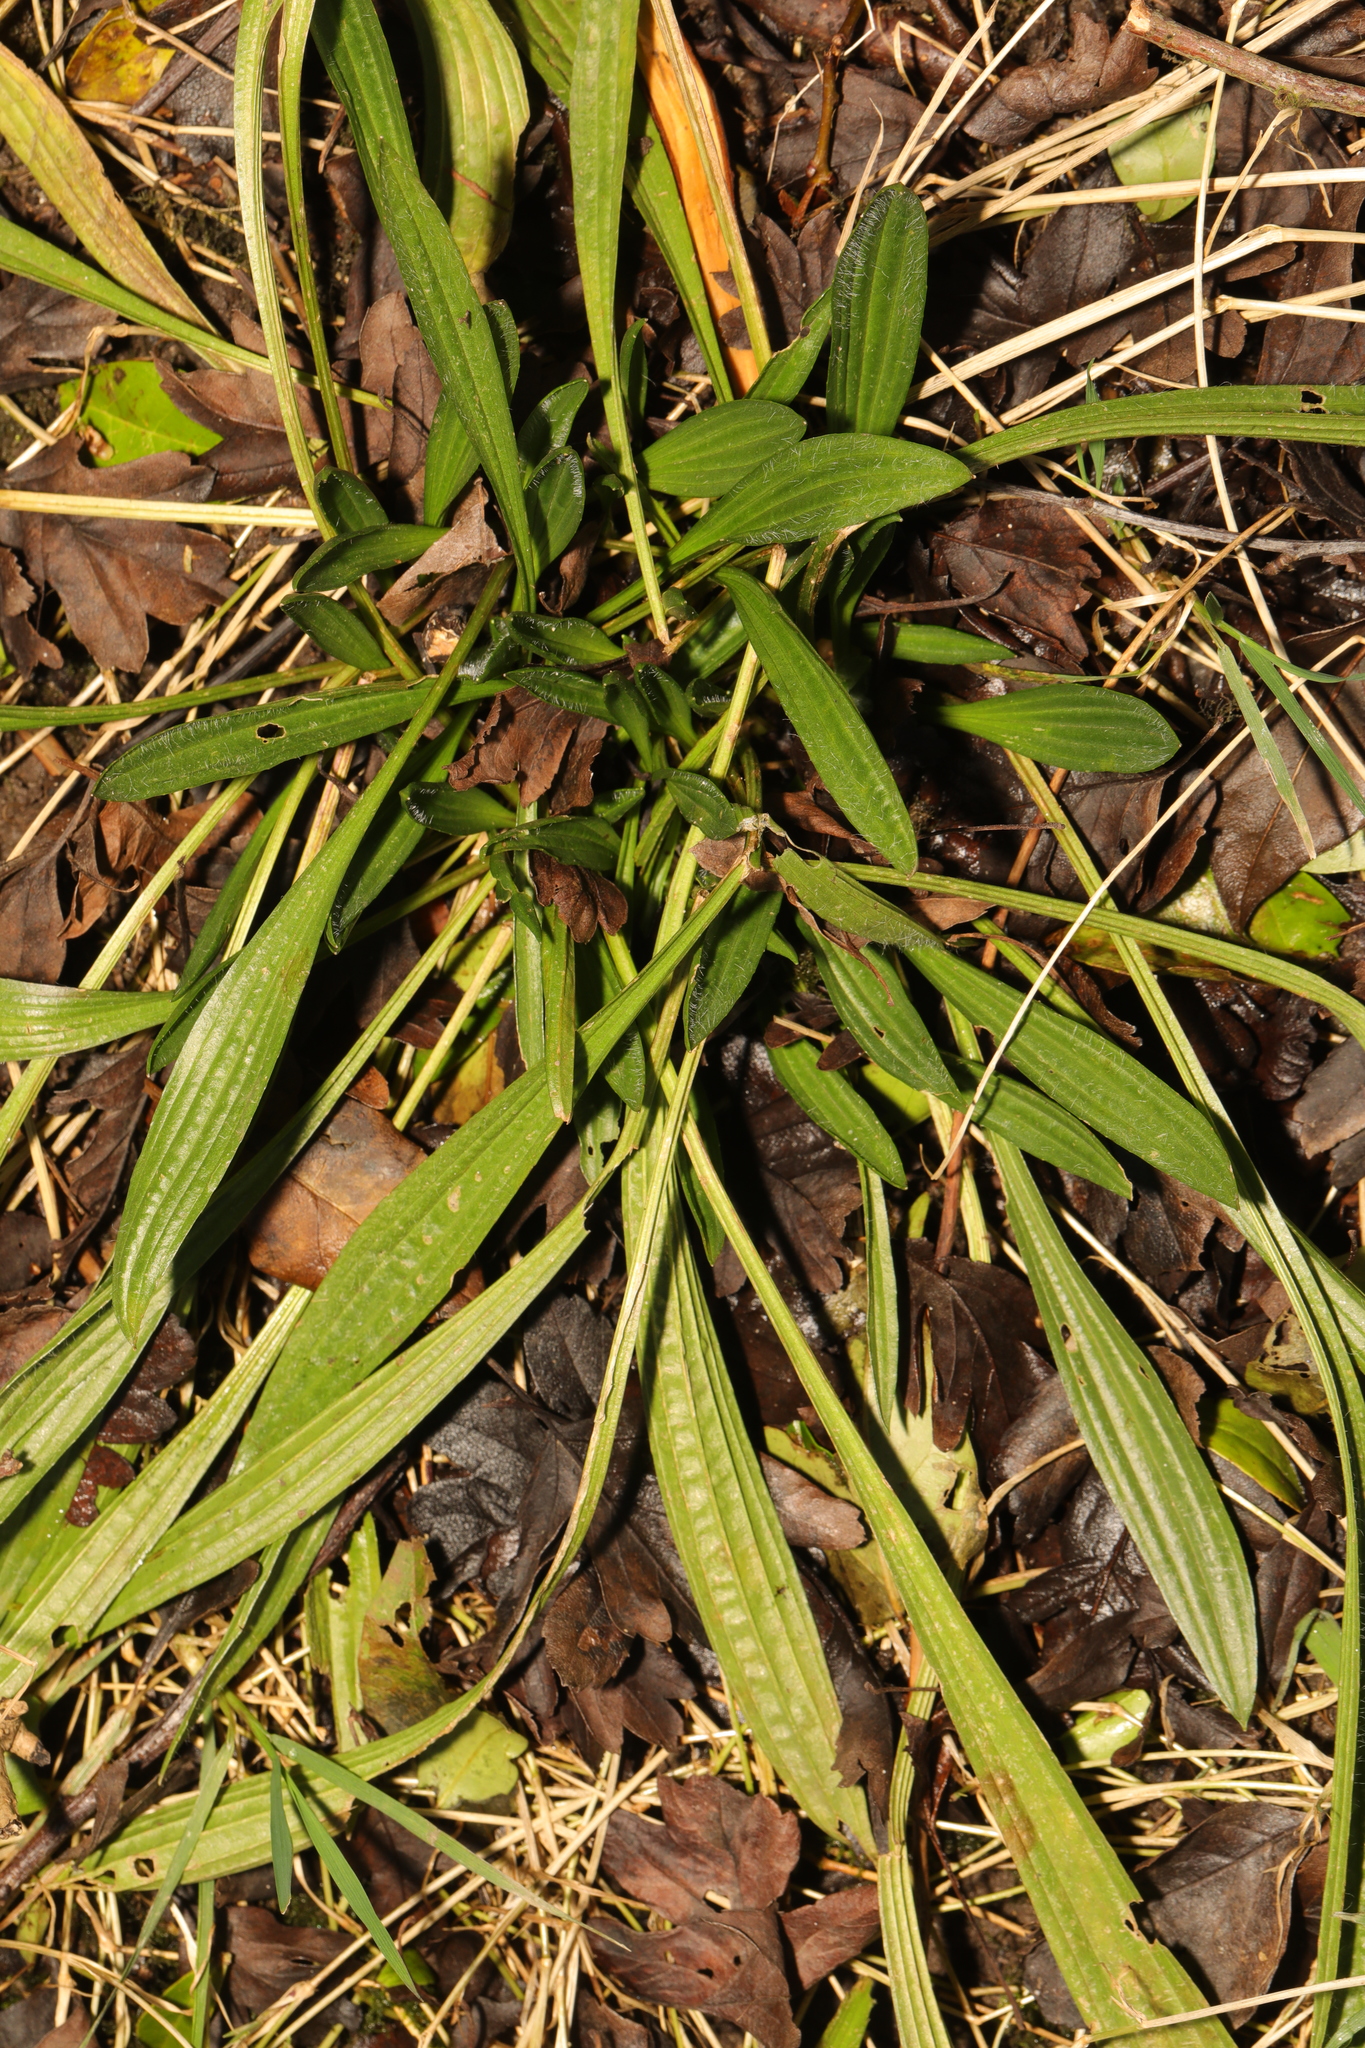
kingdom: Plantae
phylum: Tracheophyta
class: Magnoliopsida
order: Lamiales
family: Plantaginaceae
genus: Plantago
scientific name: Plantago lanceolata
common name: Ribwort plantain
